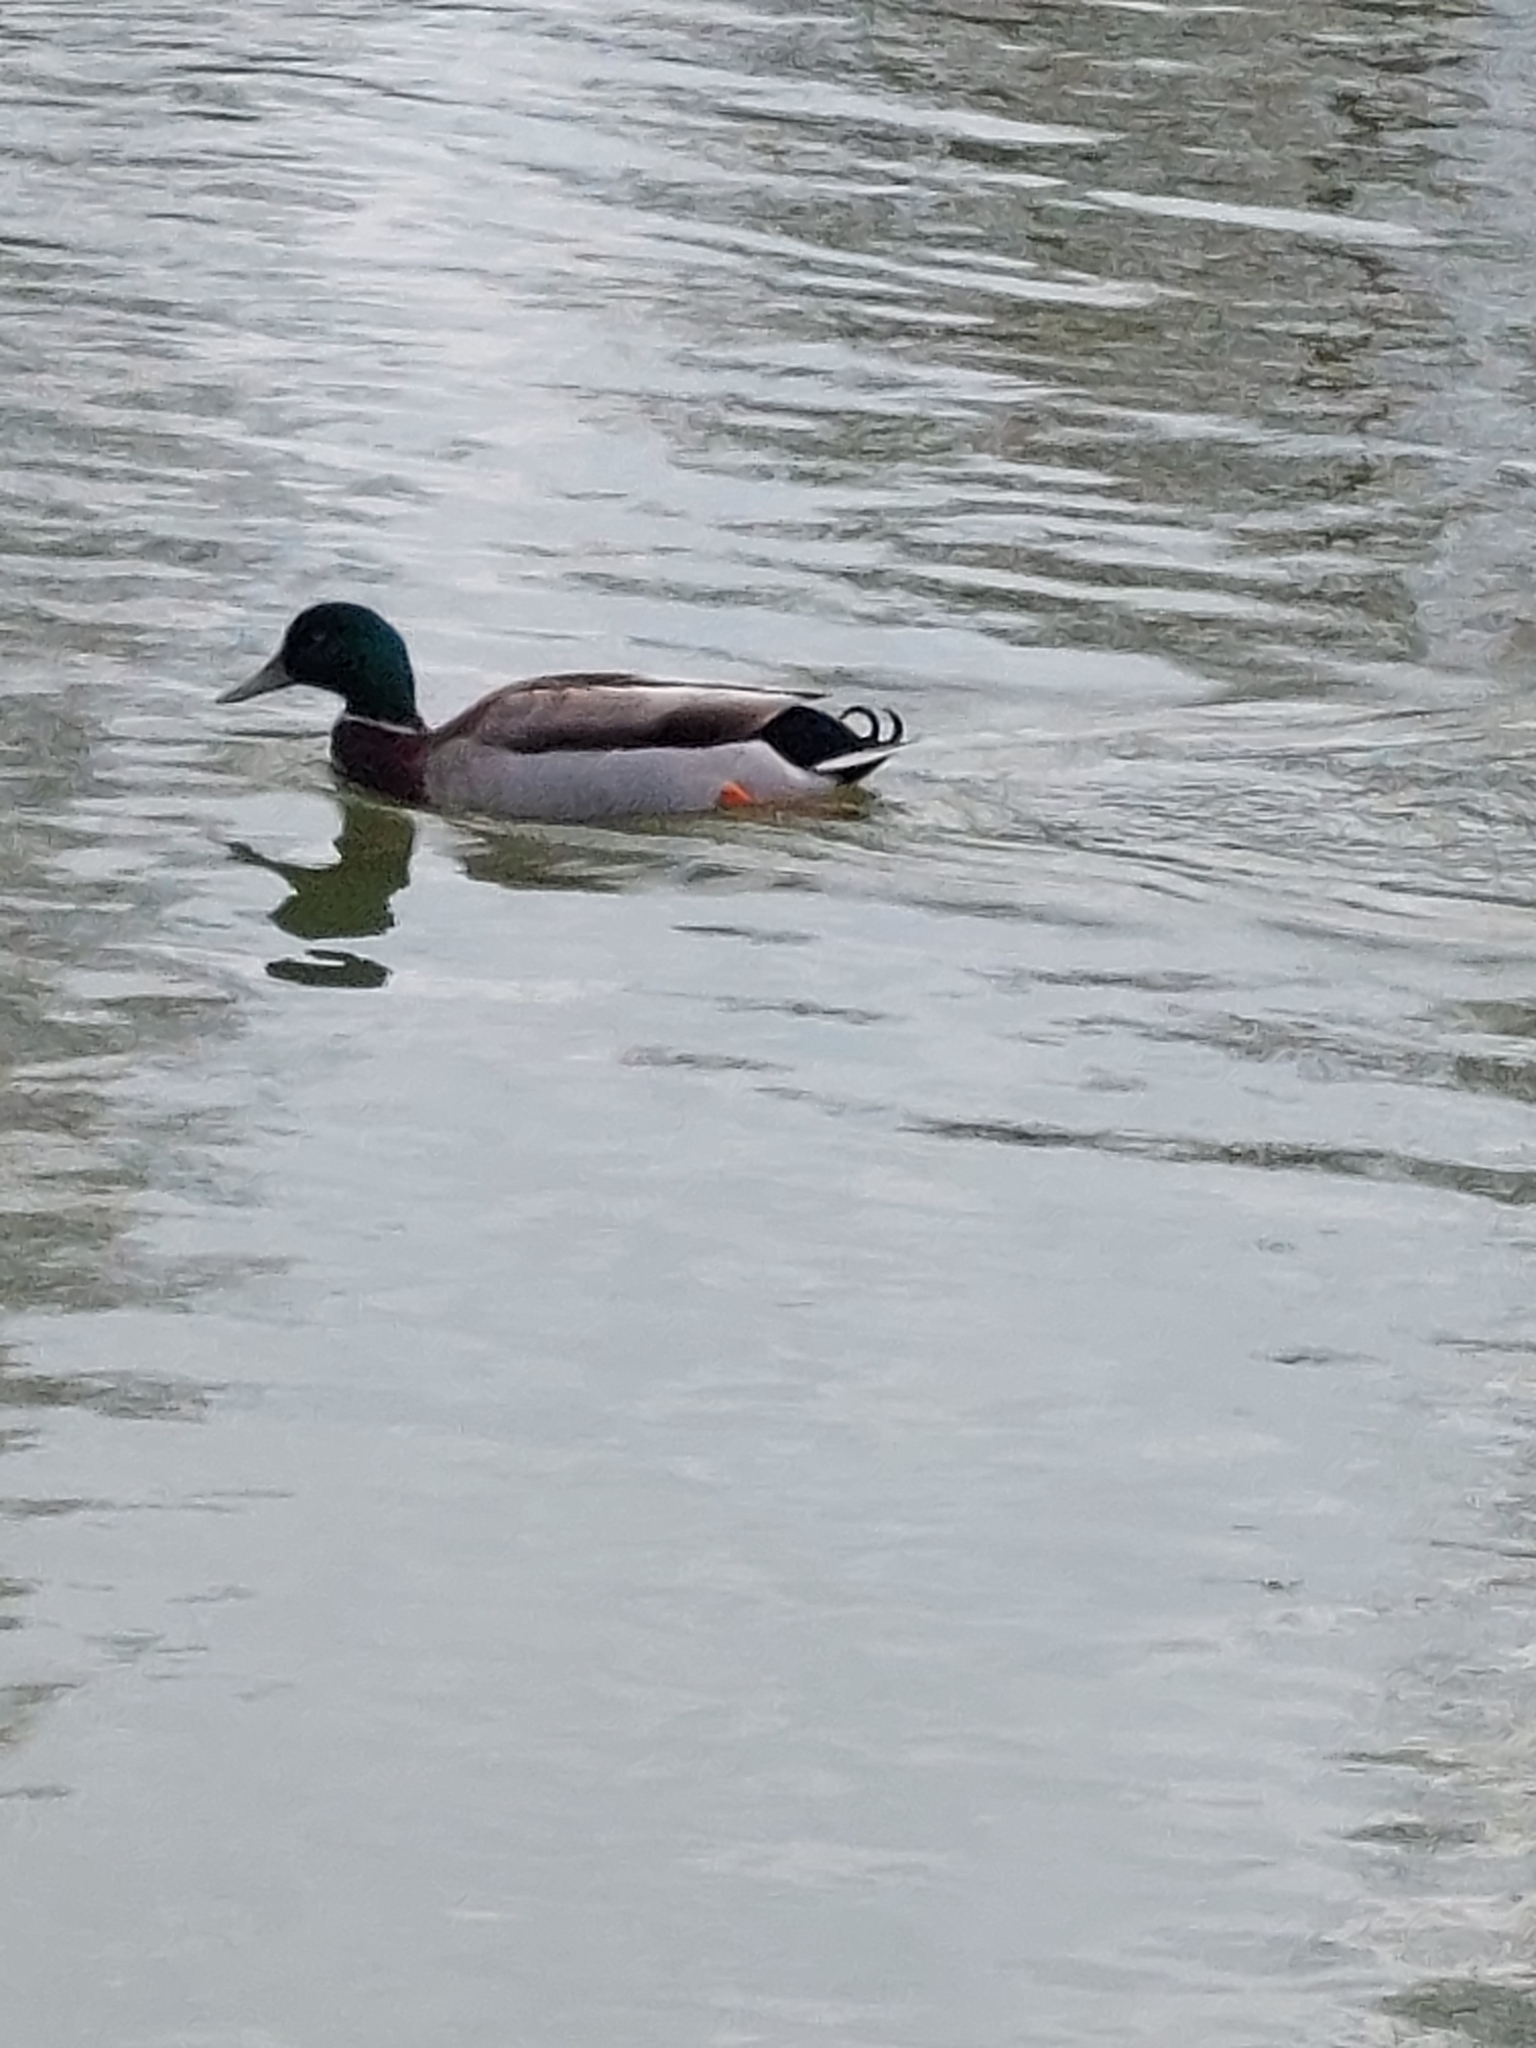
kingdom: Animalia
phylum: Chordata
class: Aves
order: Anseriformes
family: Anatidae
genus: Anas
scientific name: Anas platyrhynchos
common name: Mallard
